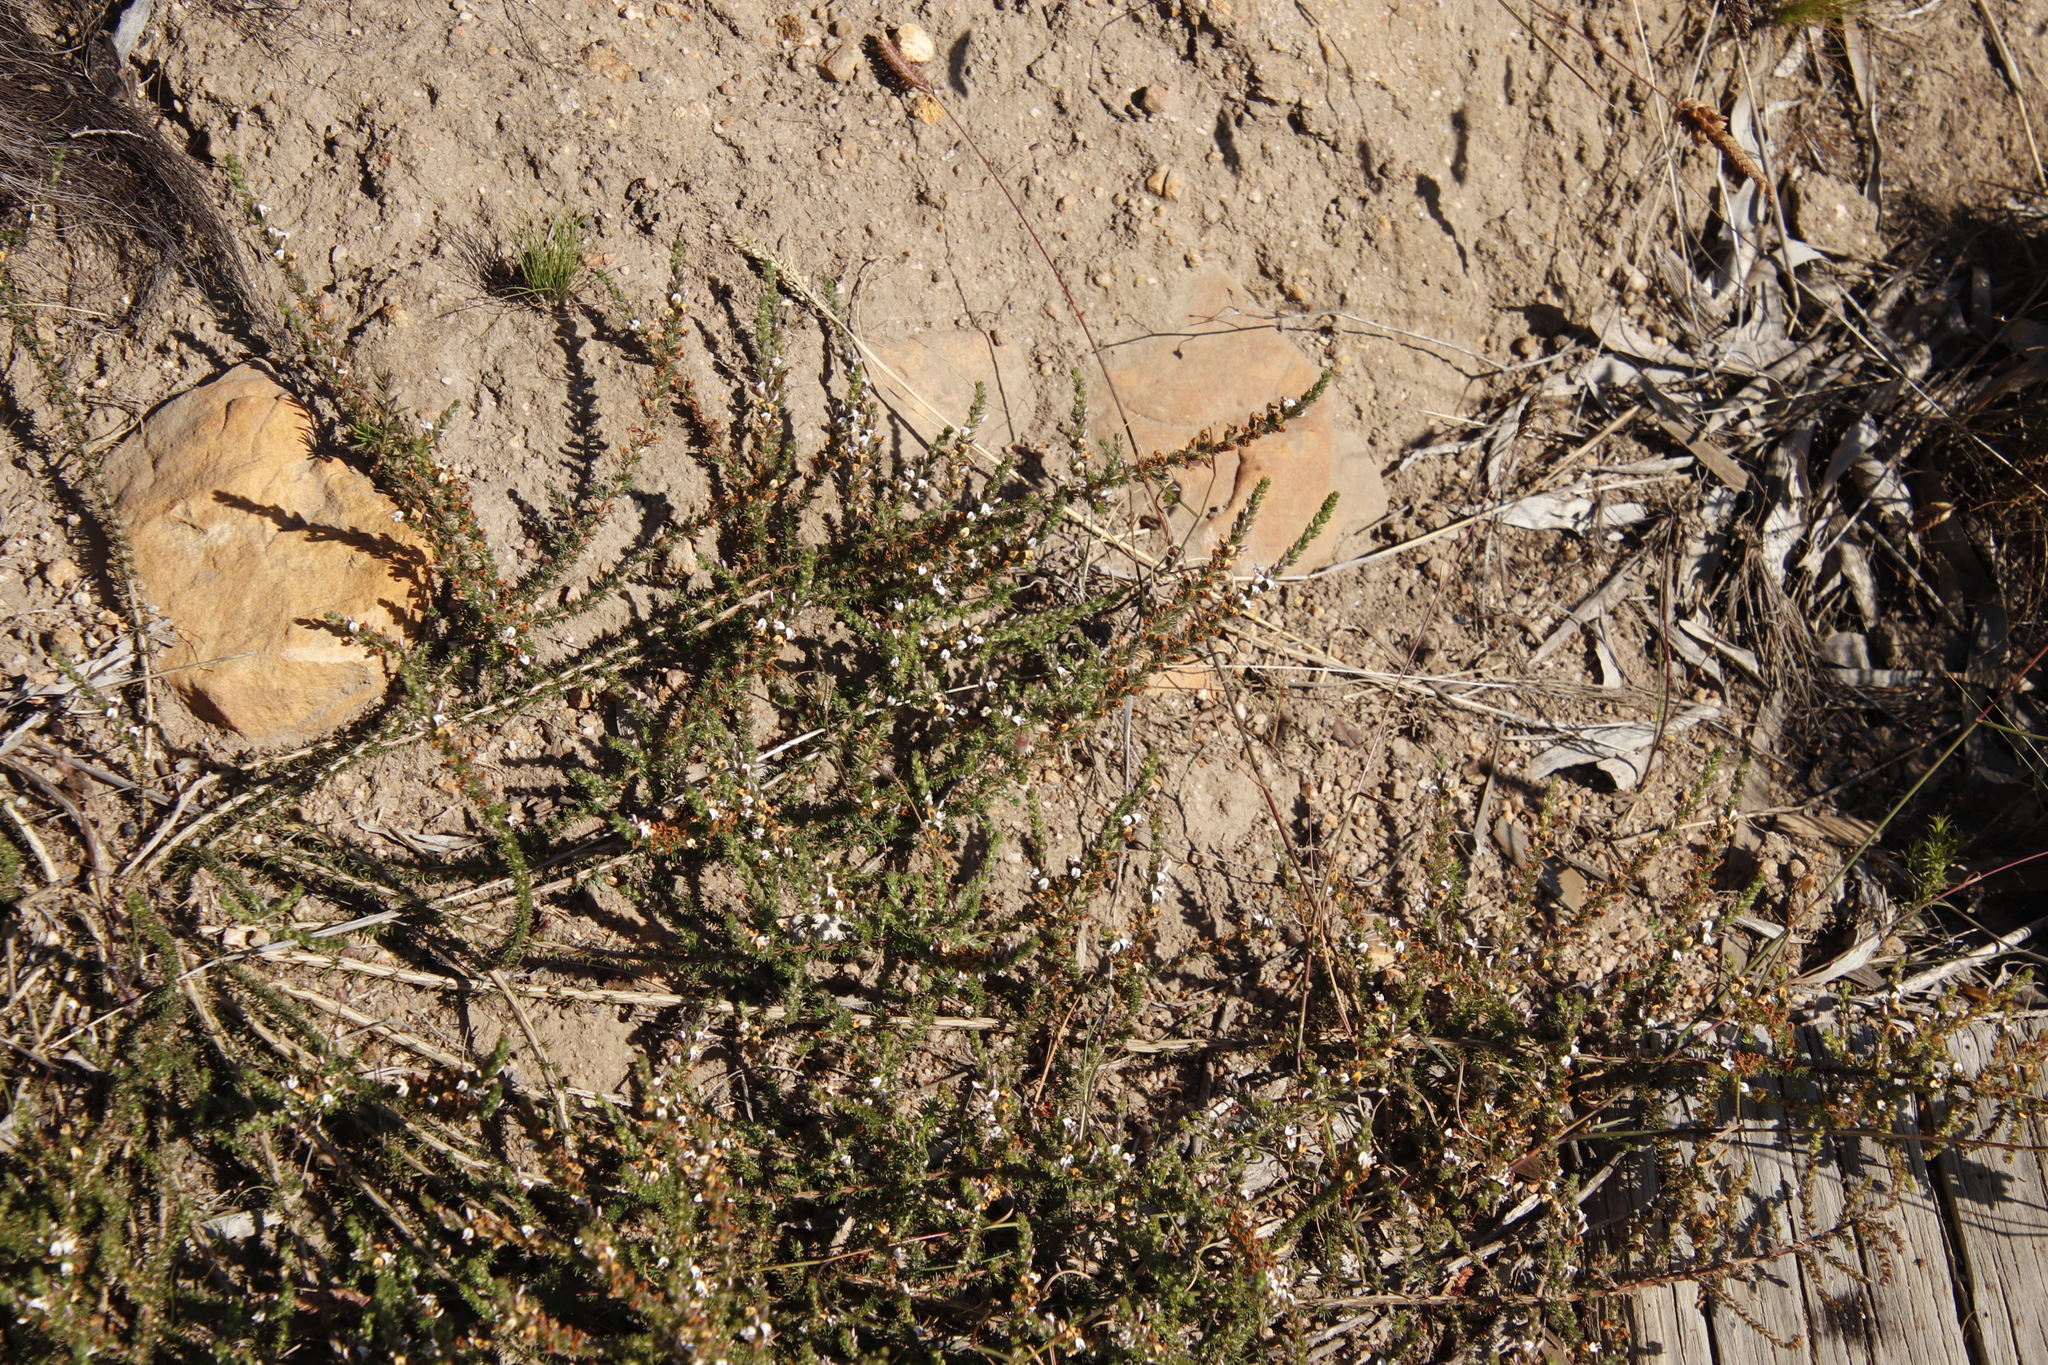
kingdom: Plantae
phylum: Tracheophyta
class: Magnoliopsida
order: Fabales
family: Fabaceae
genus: Aspalathus
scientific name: Aspalathus hispida
